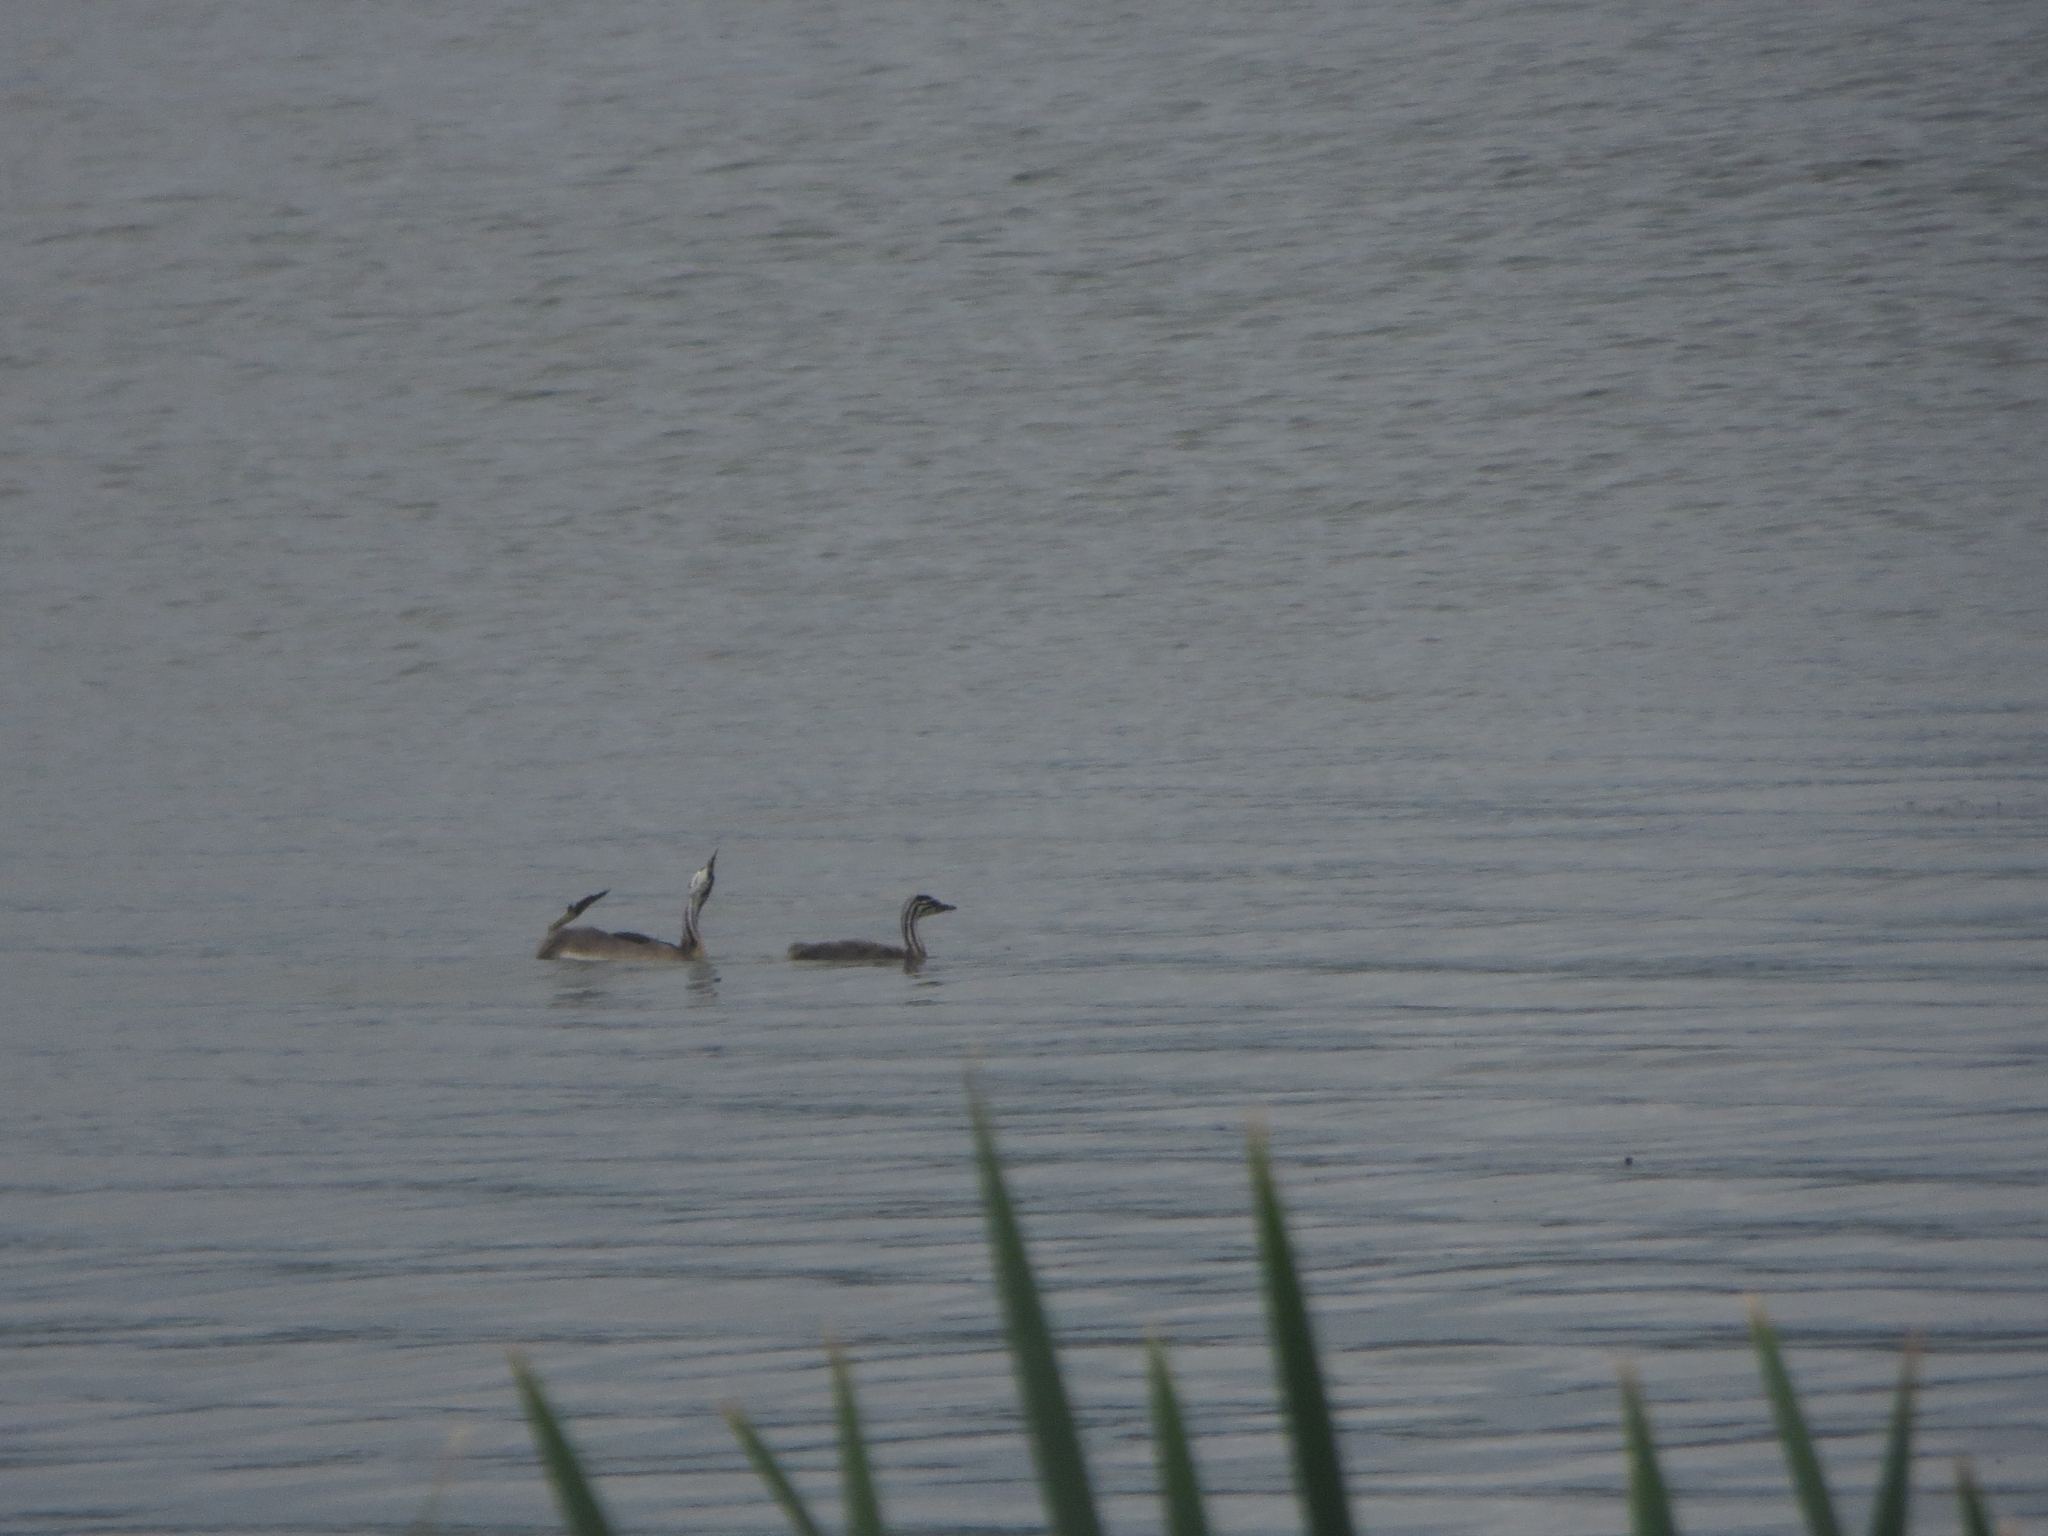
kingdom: Animalia
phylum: Chordata
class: Aves
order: Podicipediformes
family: Podicipedidae
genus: Podiceps
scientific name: Podiceps cristatus
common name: Great crested grebe
